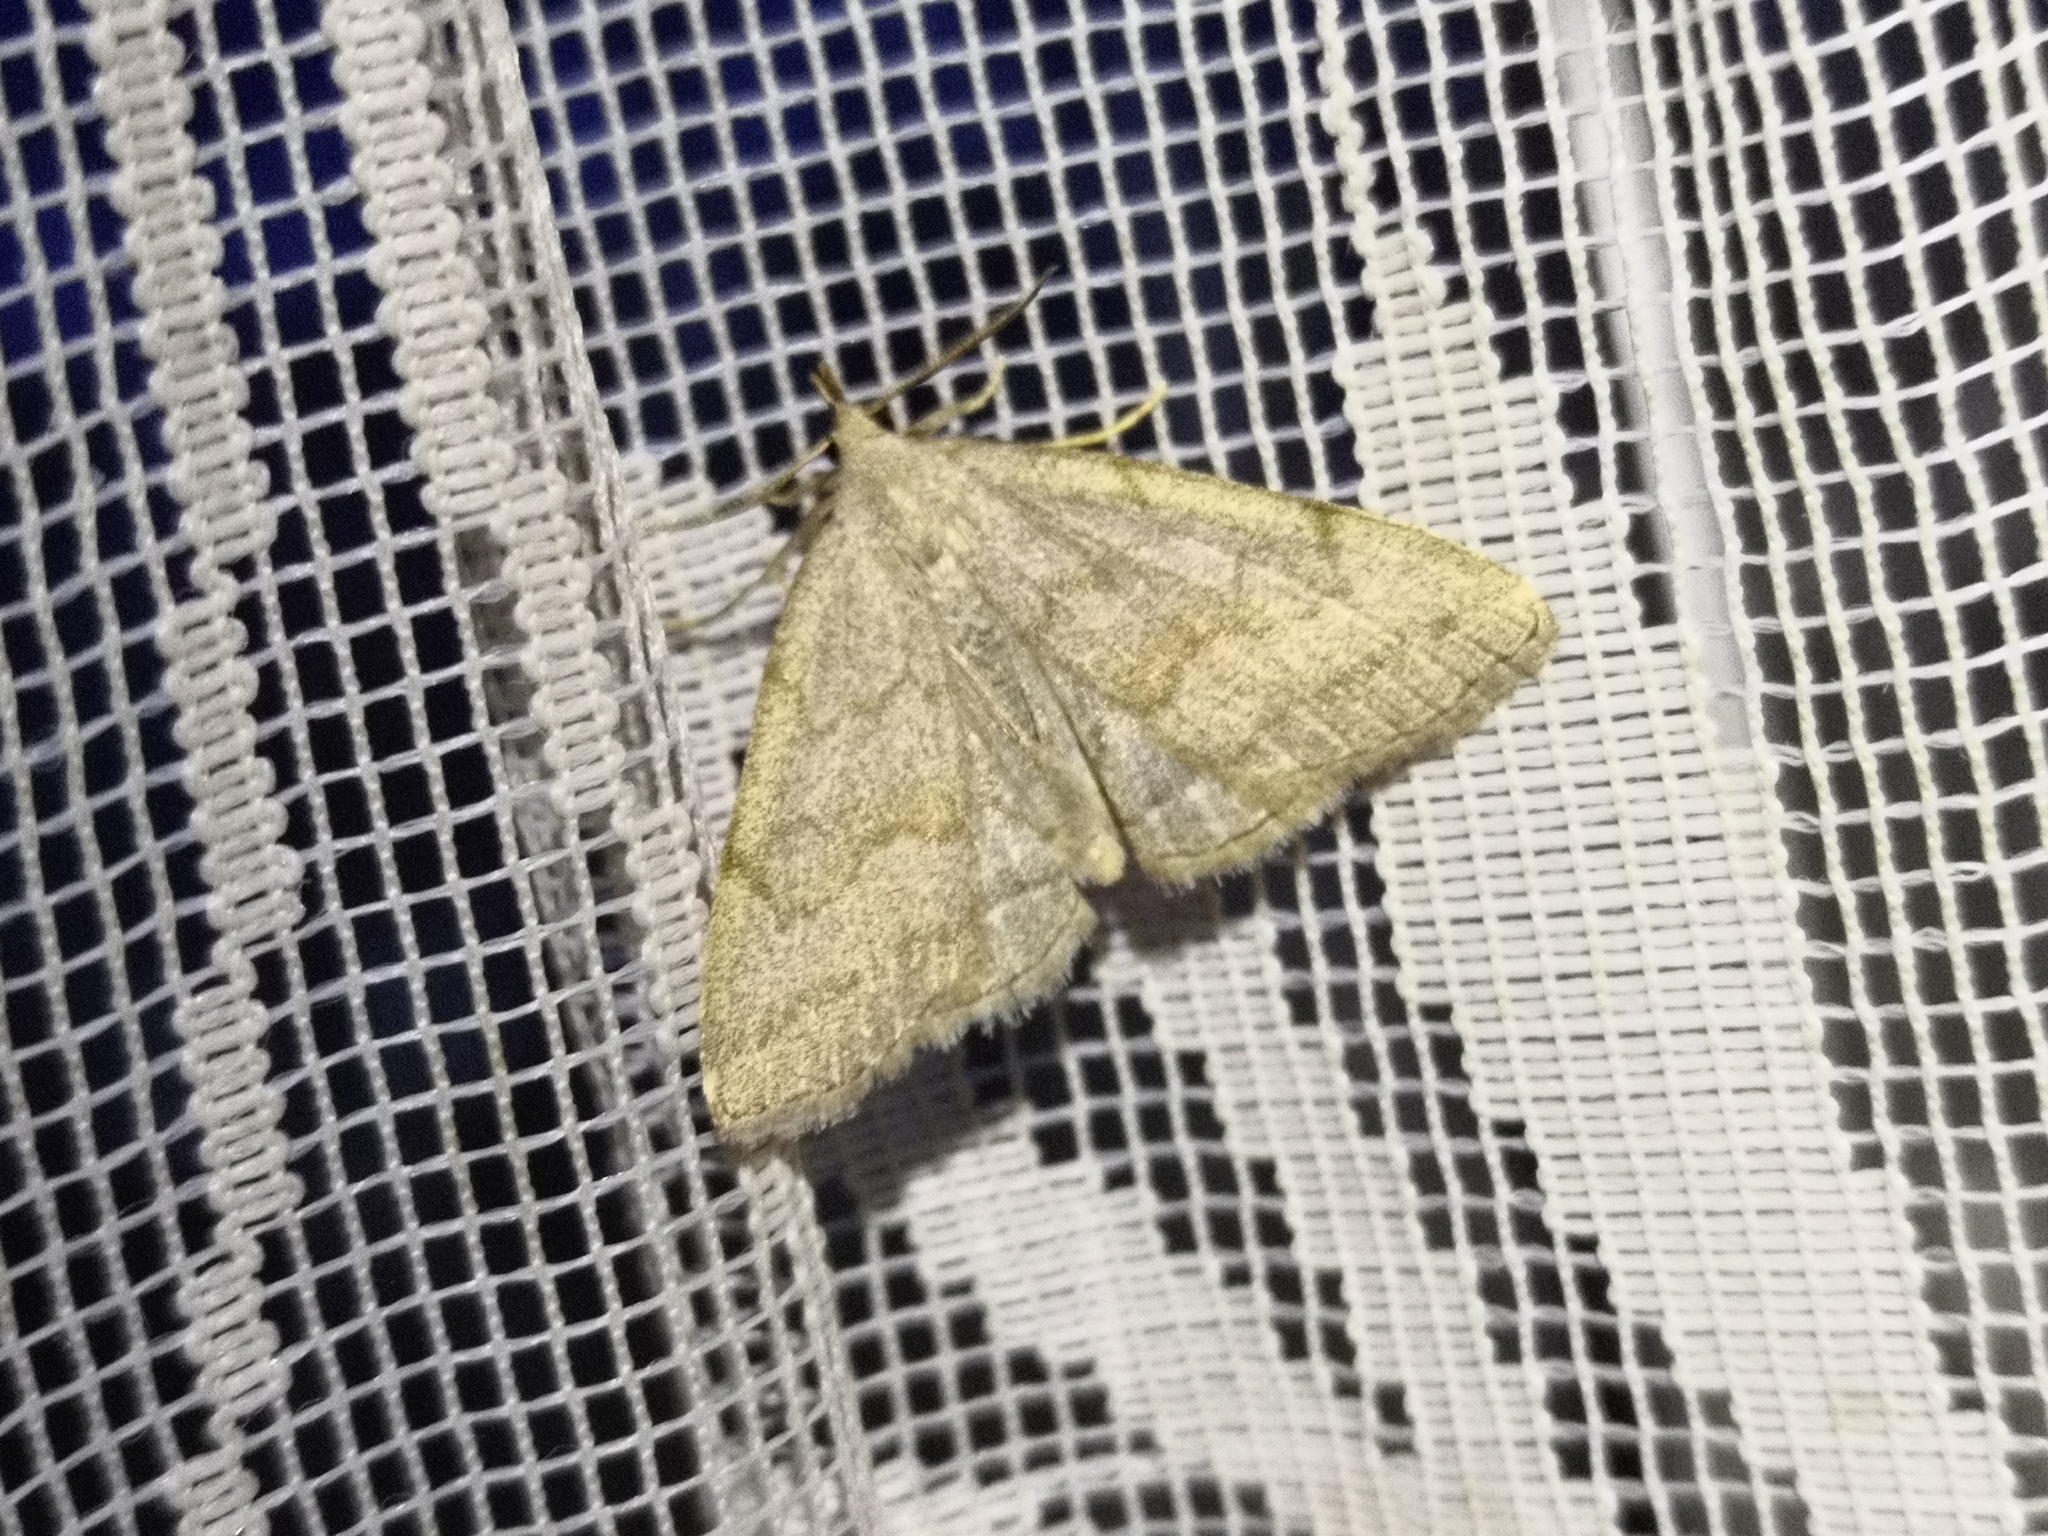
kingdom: Animalia
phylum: Arthropoda
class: Insecta
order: Lepidoptera
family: Erebidae
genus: Pechipogo
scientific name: Pechipogo strigilata
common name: Common fan-foot
